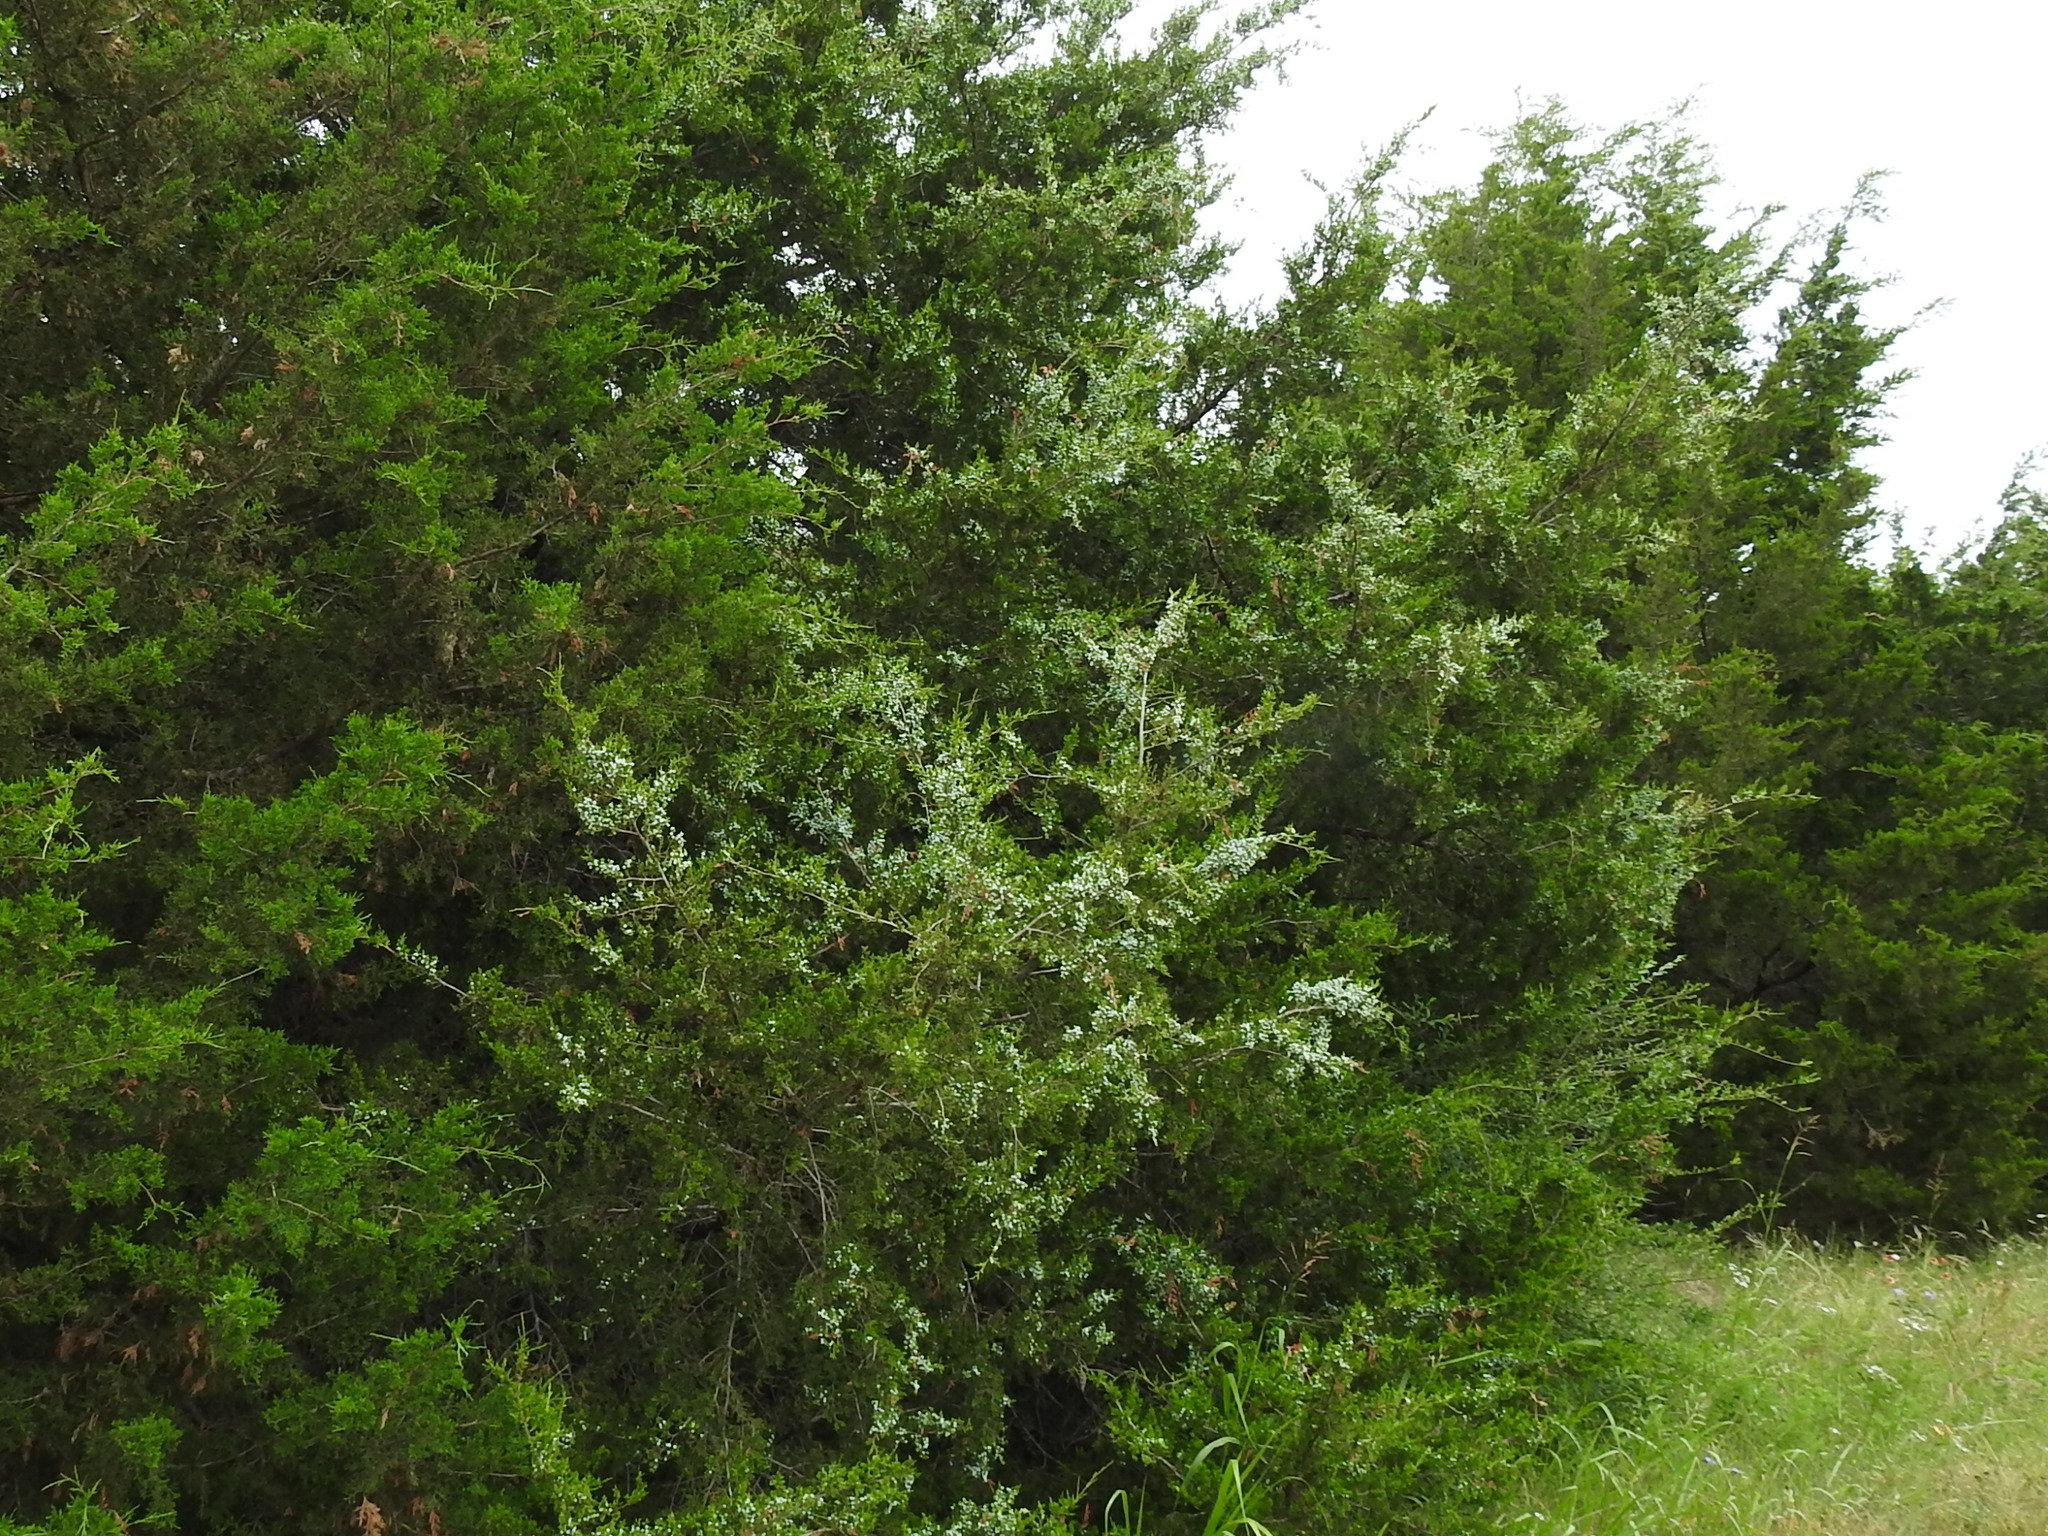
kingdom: Plantae
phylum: Tracheophyta
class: Pinopsida
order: Pinales
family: Cupressaceae
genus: Juniperus
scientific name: Juniperus virginiana
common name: Red juniper
